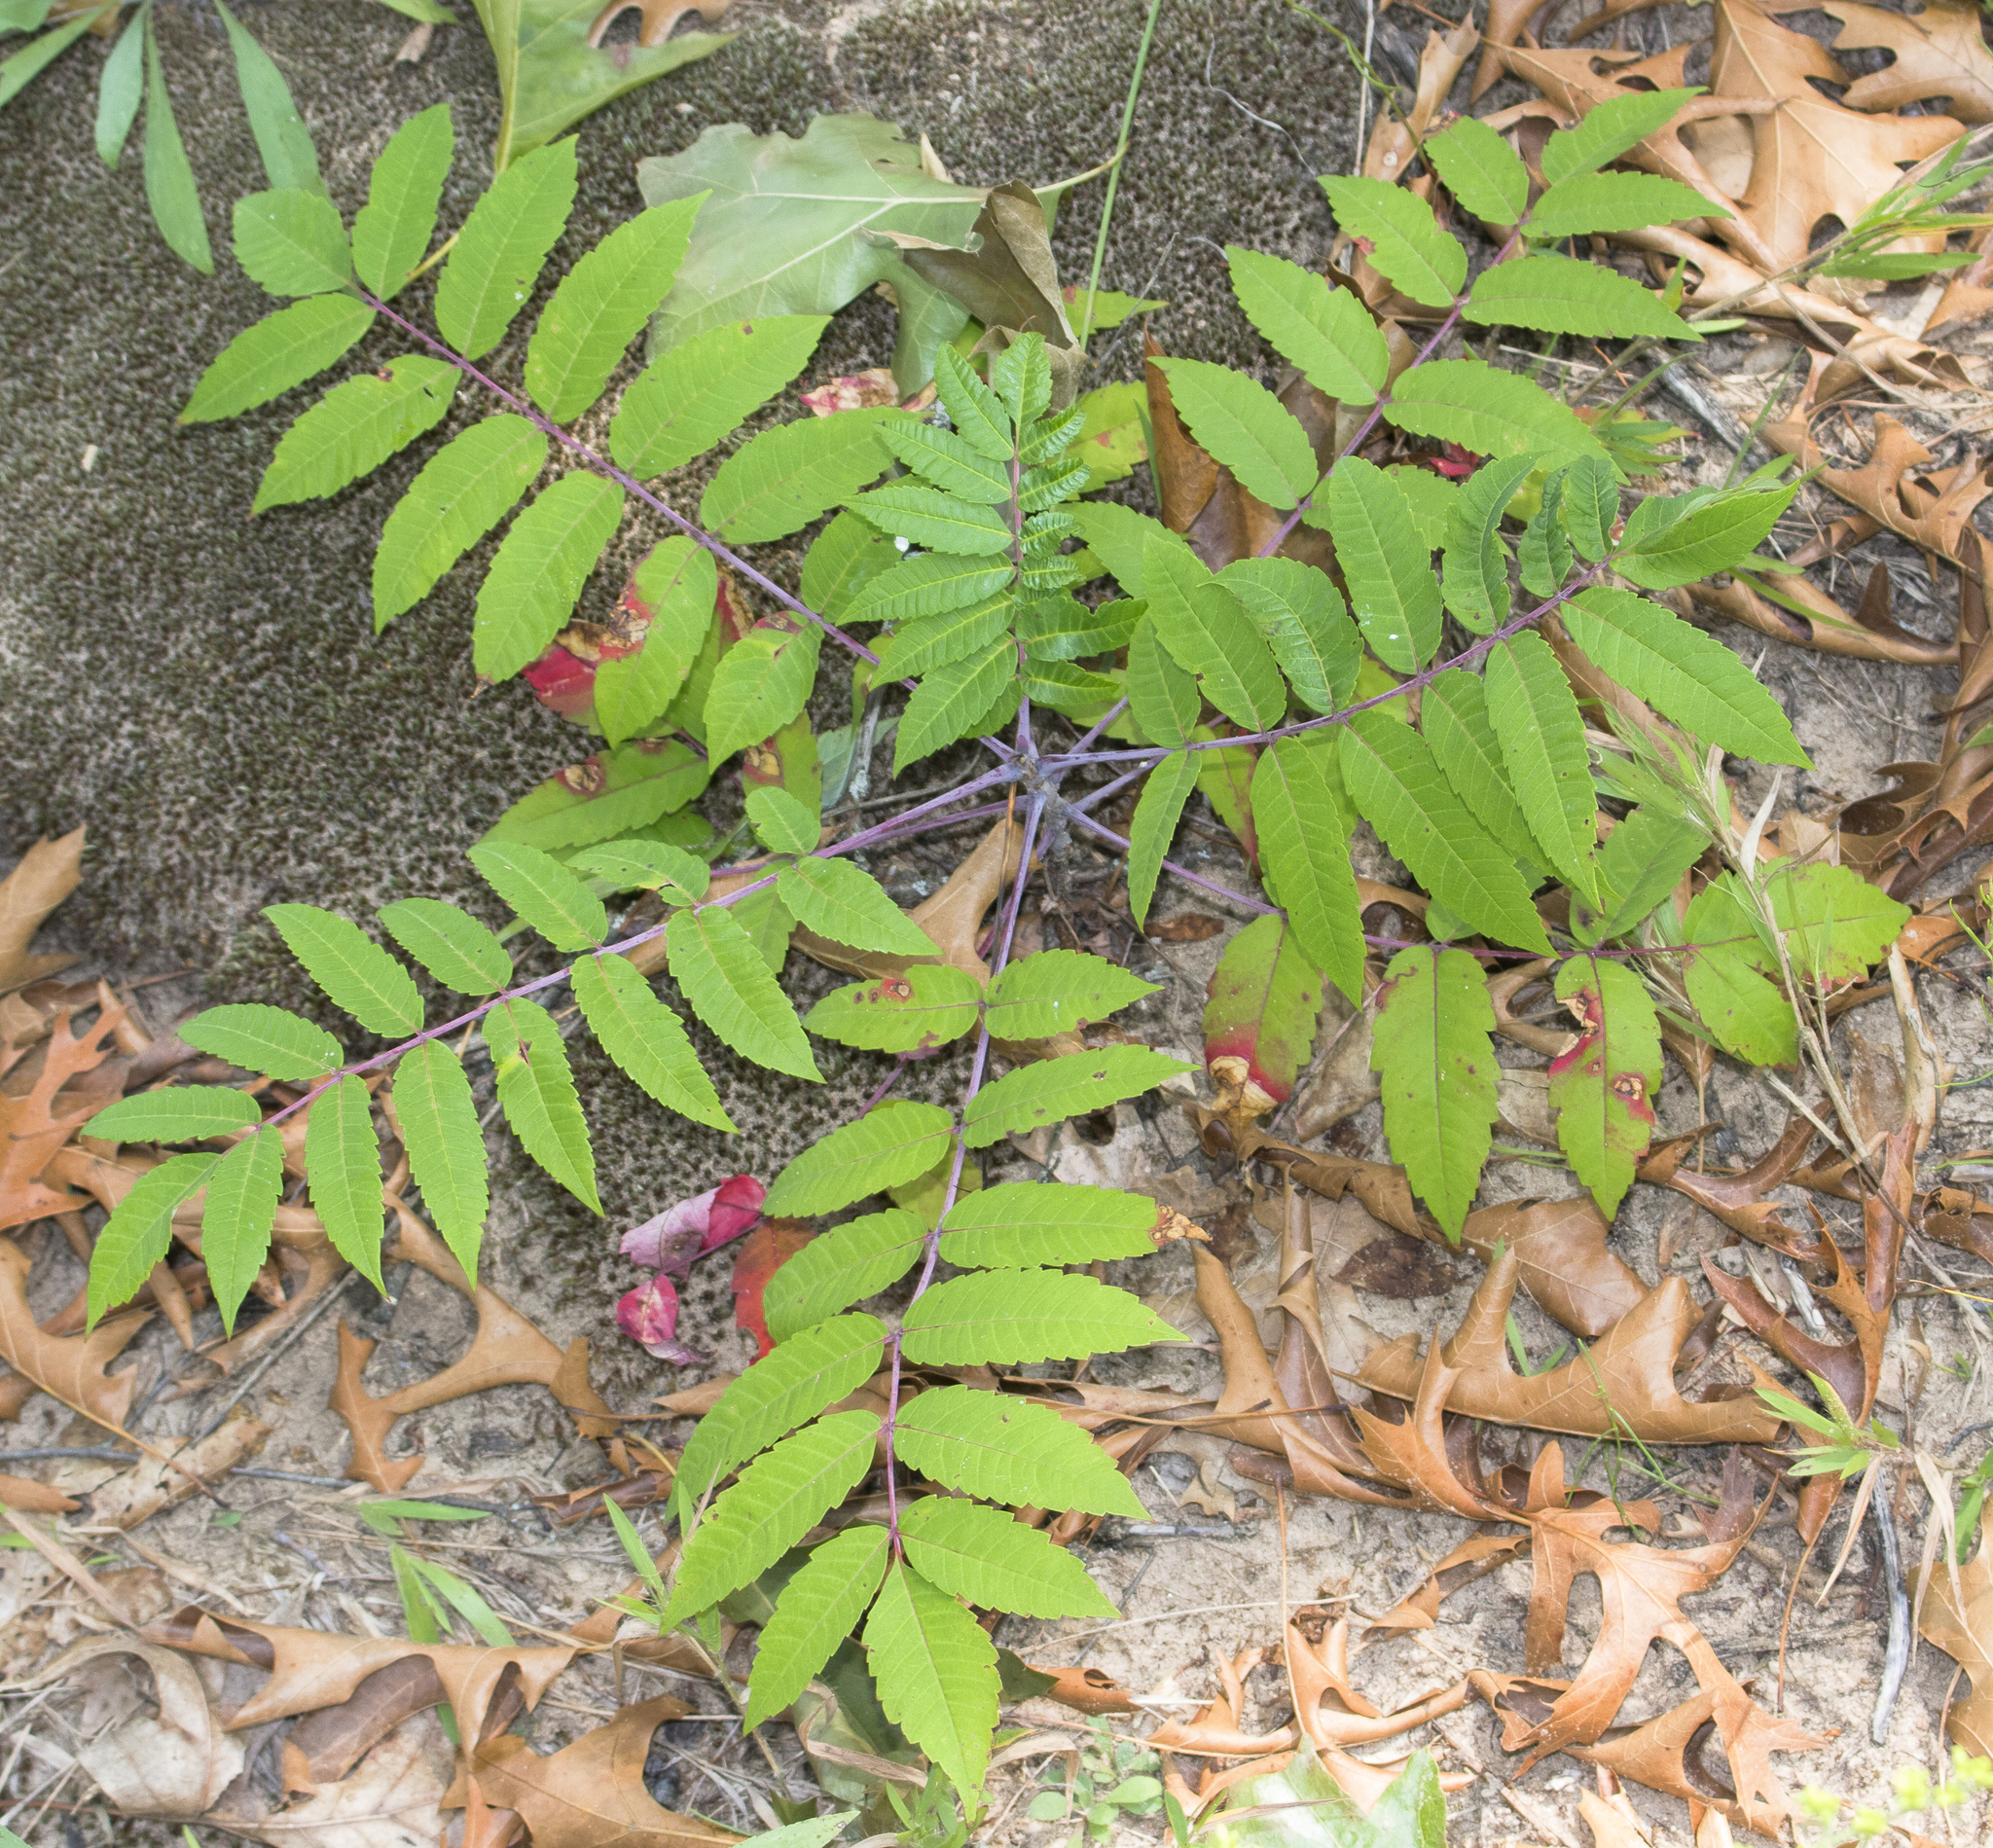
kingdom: Plantae
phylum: Tracheophyta
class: Magnoliopsida
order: Sapindales
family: Anacardiaceae
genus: Rhus
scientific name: Rhus glabra
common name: Scarlet sumac
